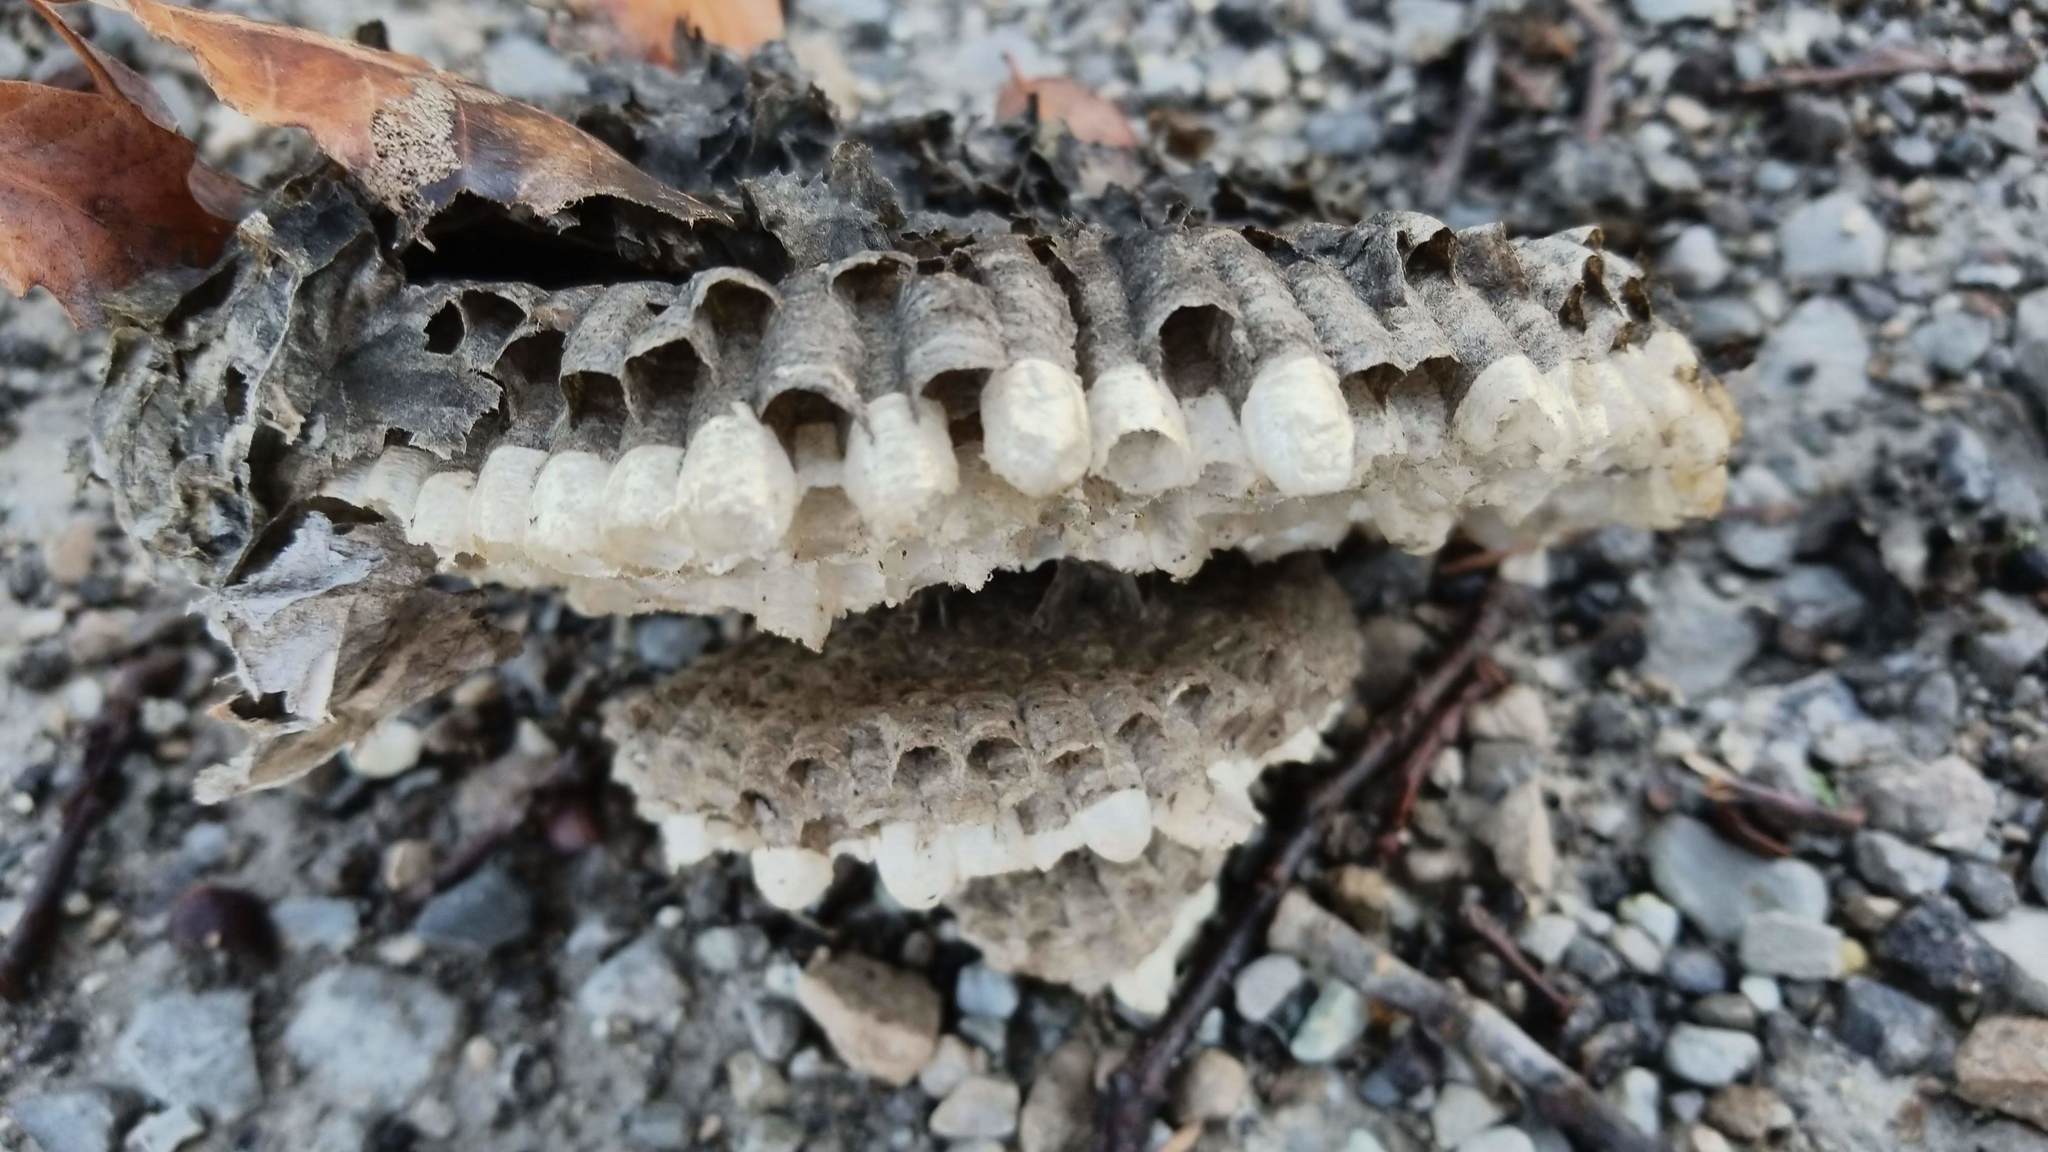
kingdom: Animalia
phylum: Arthropoda
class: Insecta
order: Hymenoptera
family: Vespidae
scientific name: Vespidae
